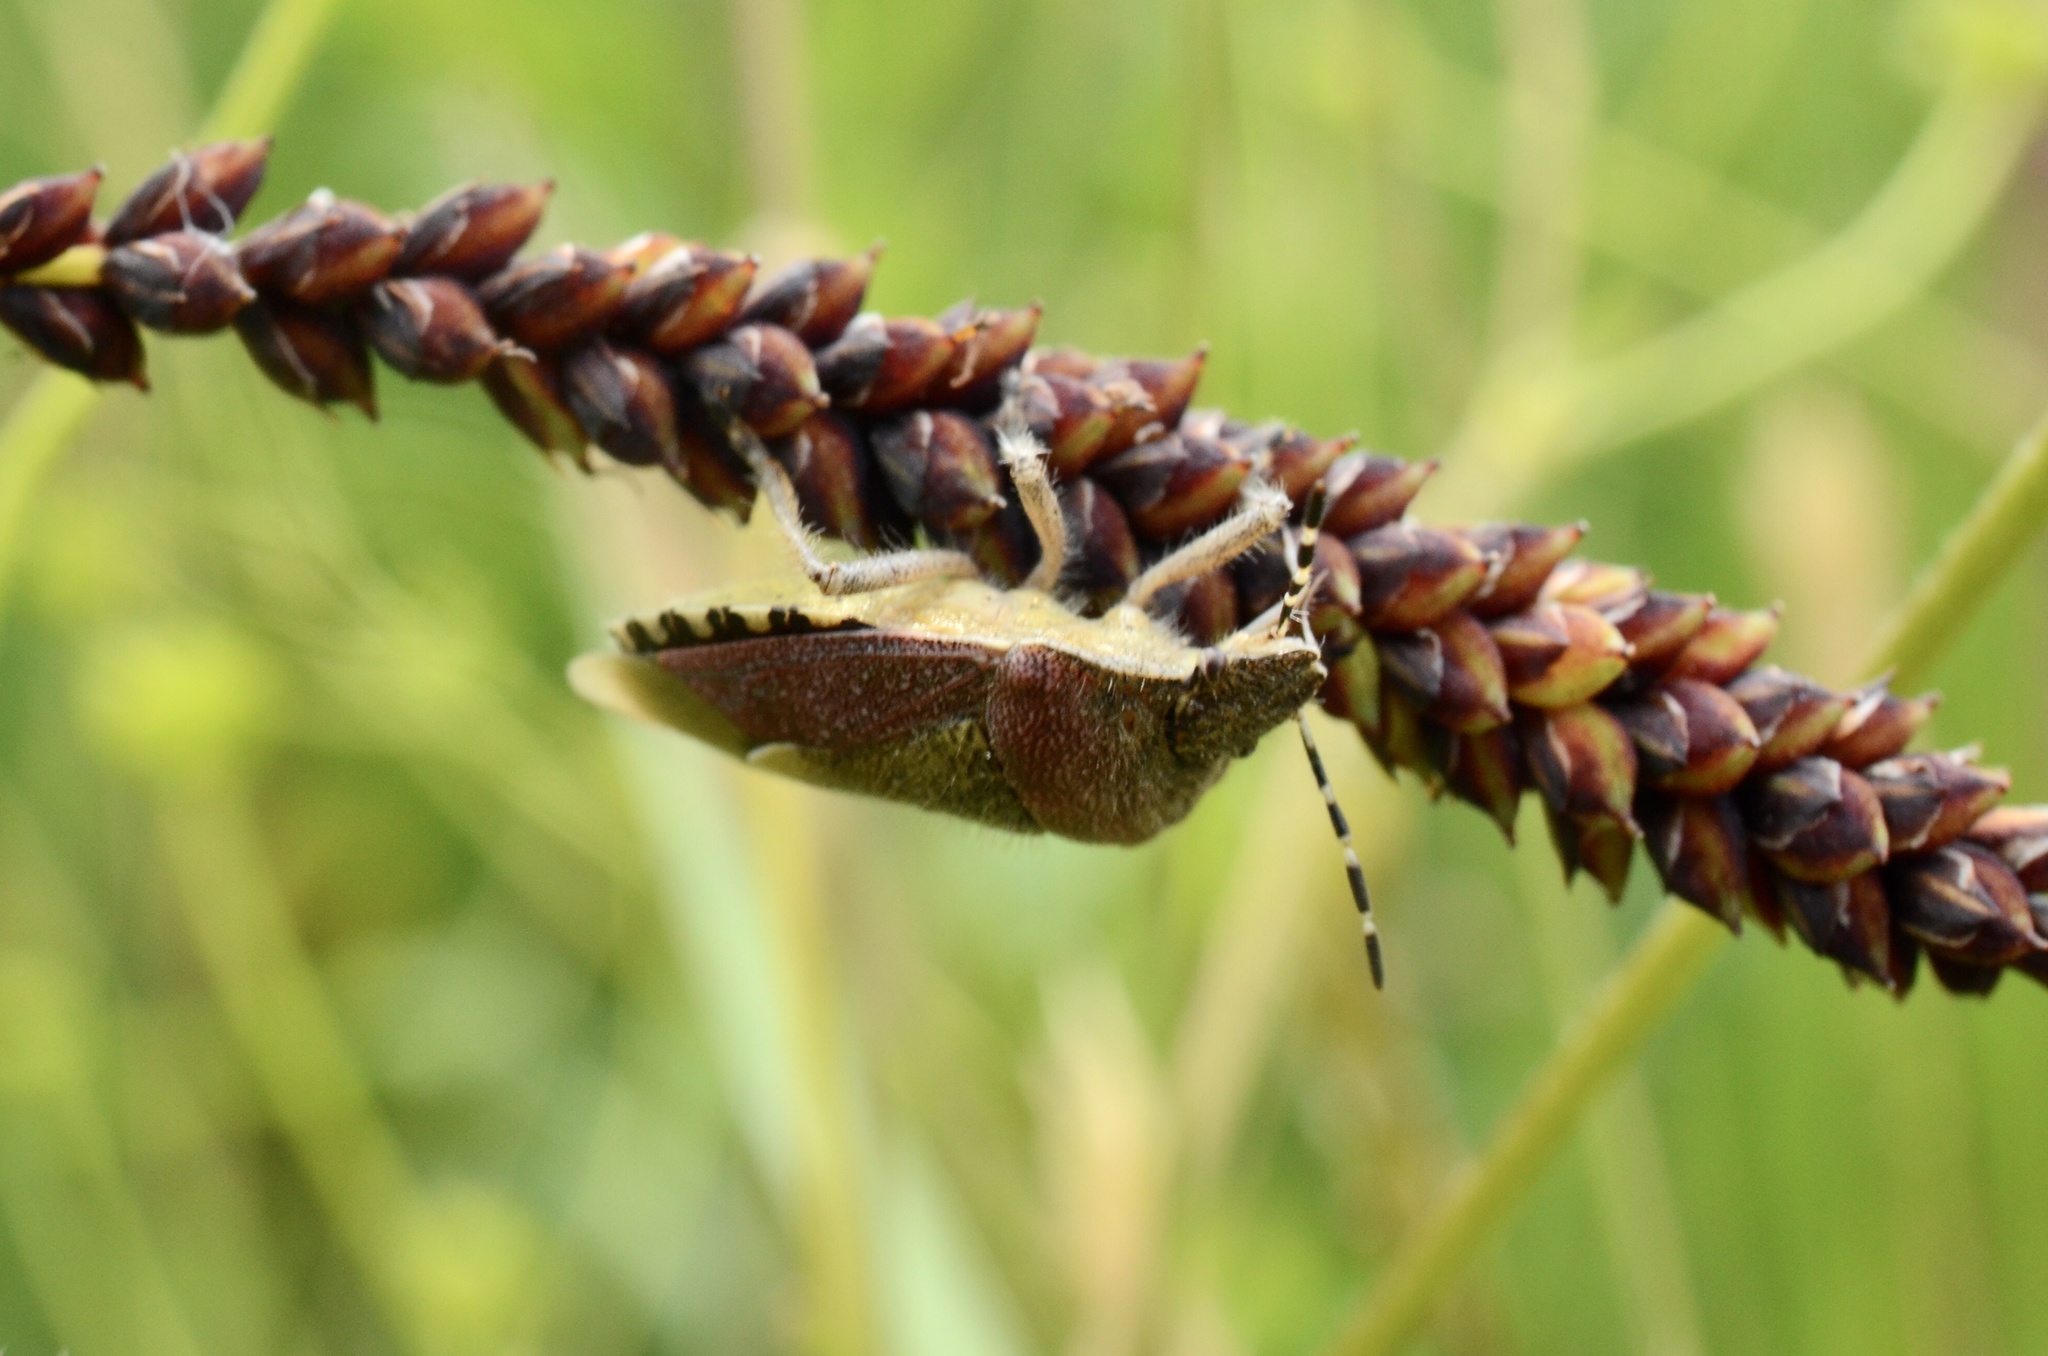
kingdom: Animalia
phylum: Arthropoda
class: Insecta
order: Hemiptera
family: Pentatomidae
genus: Dolycoris
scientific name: Dolycoris baccarum
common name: Sloe bug
